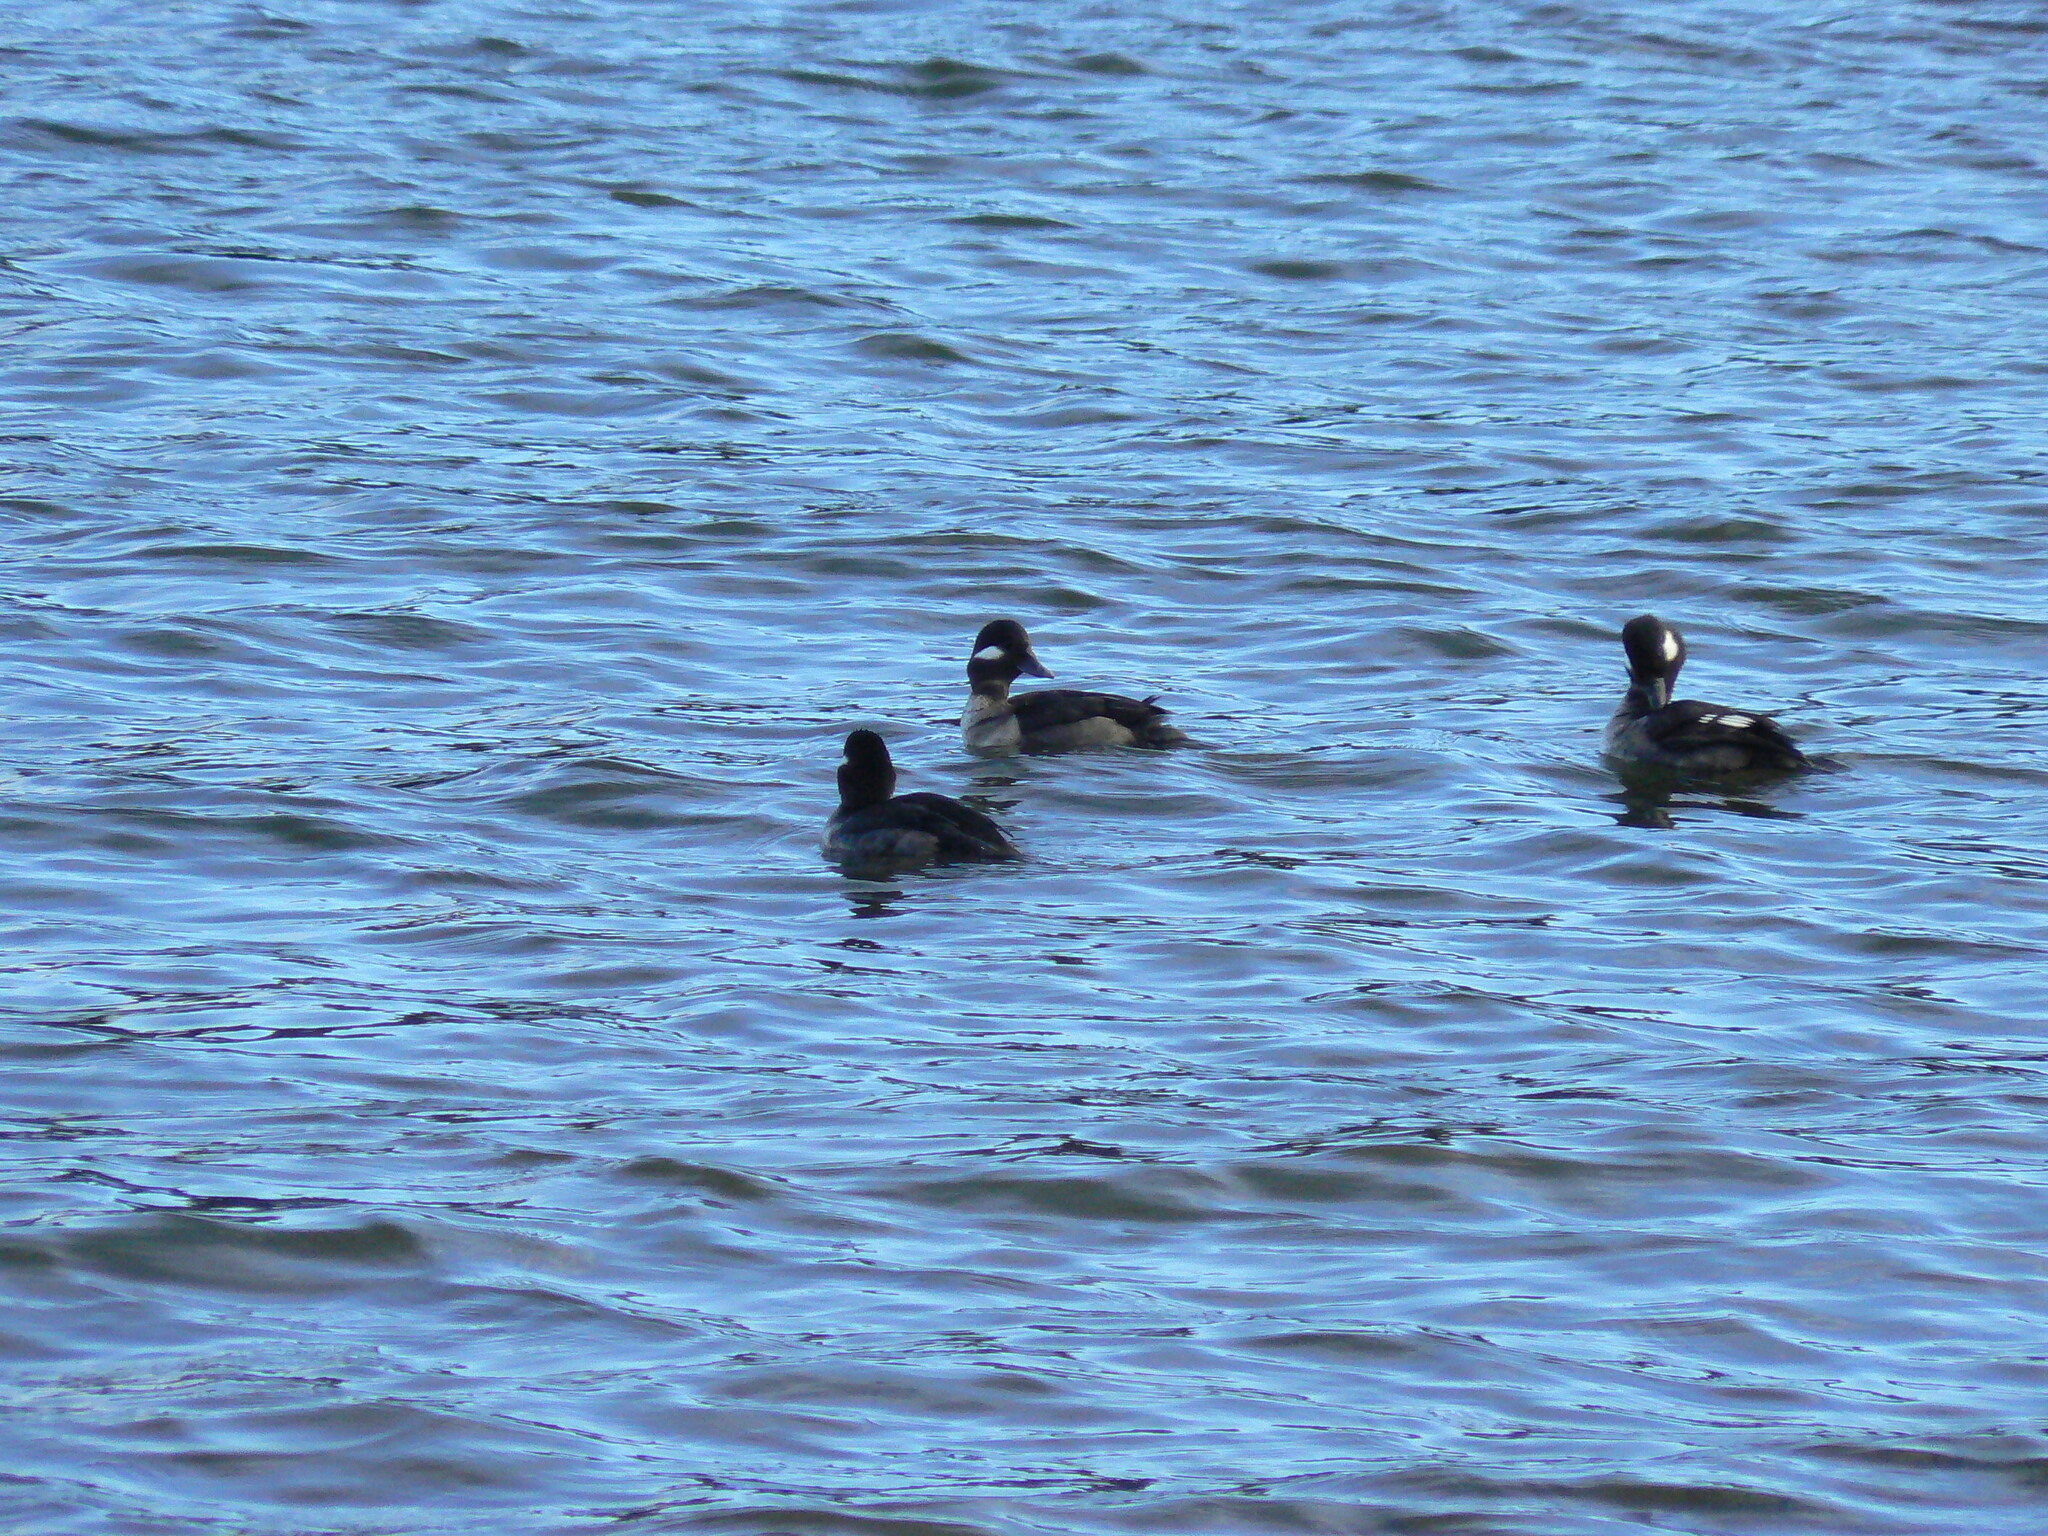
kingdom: Animalia
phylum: Chordata
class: Aves
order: Anseriformes
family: Anatidae
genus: Bucephala
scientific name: Bucephala albeola
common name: Bufflehead
